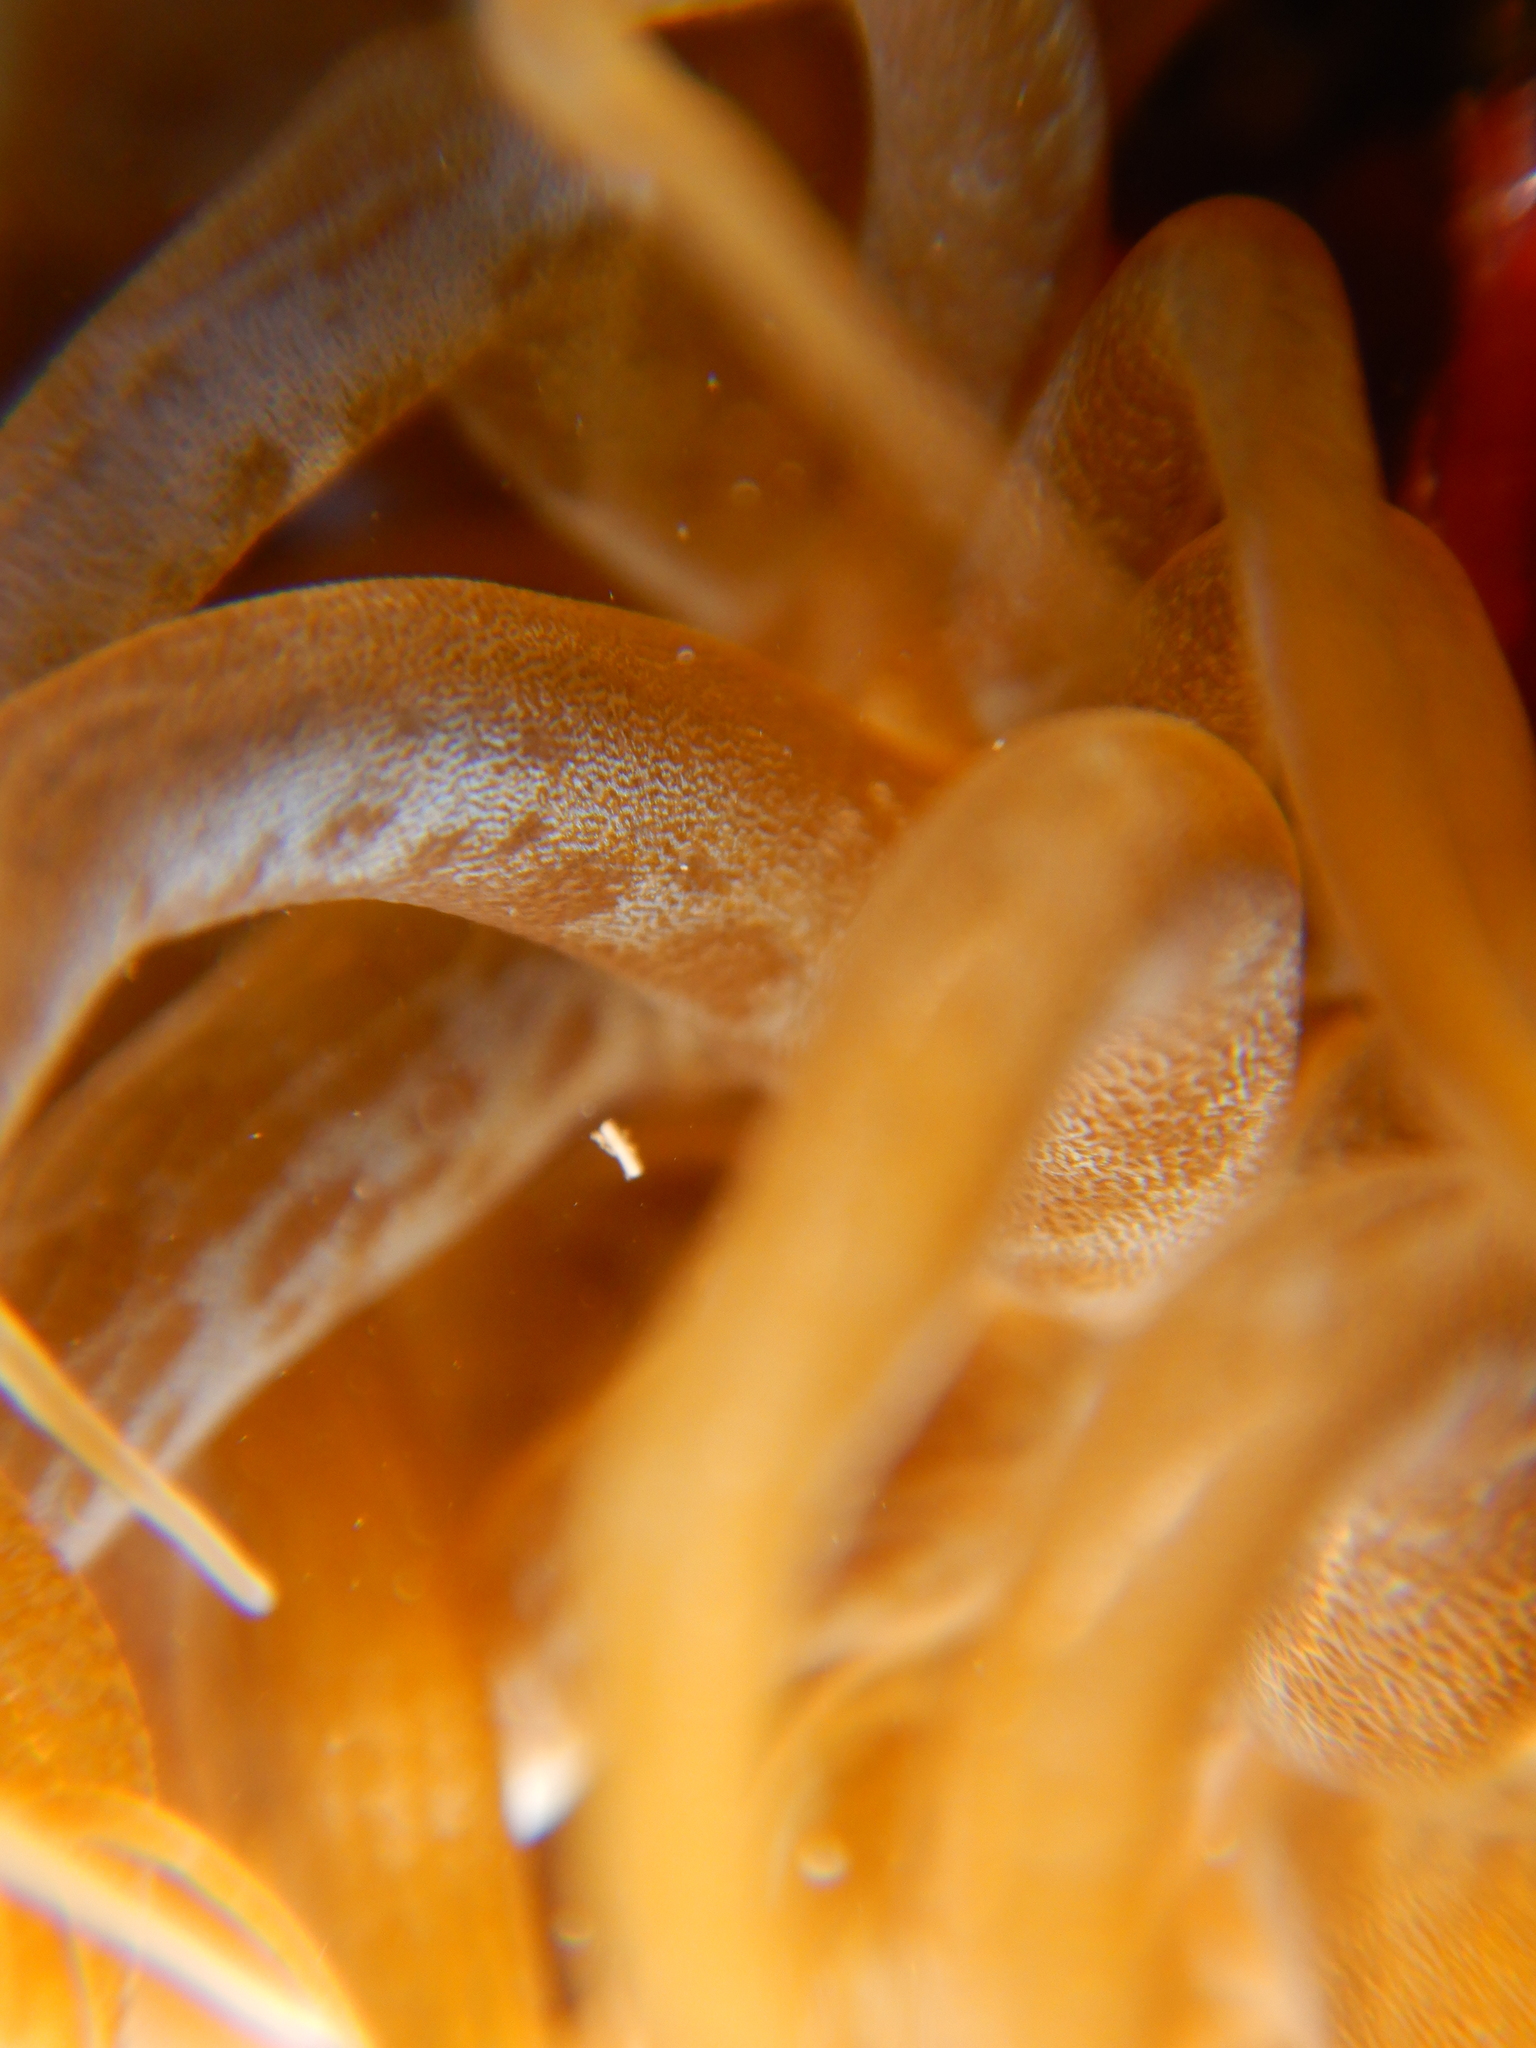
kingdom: Animalia
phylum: Cnidaria
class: Anthozoa
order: Actiniaria
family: Aiptasiidae
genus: Aiptasia
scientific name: Aiptasia mutabilis
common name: Trumpet anemone
